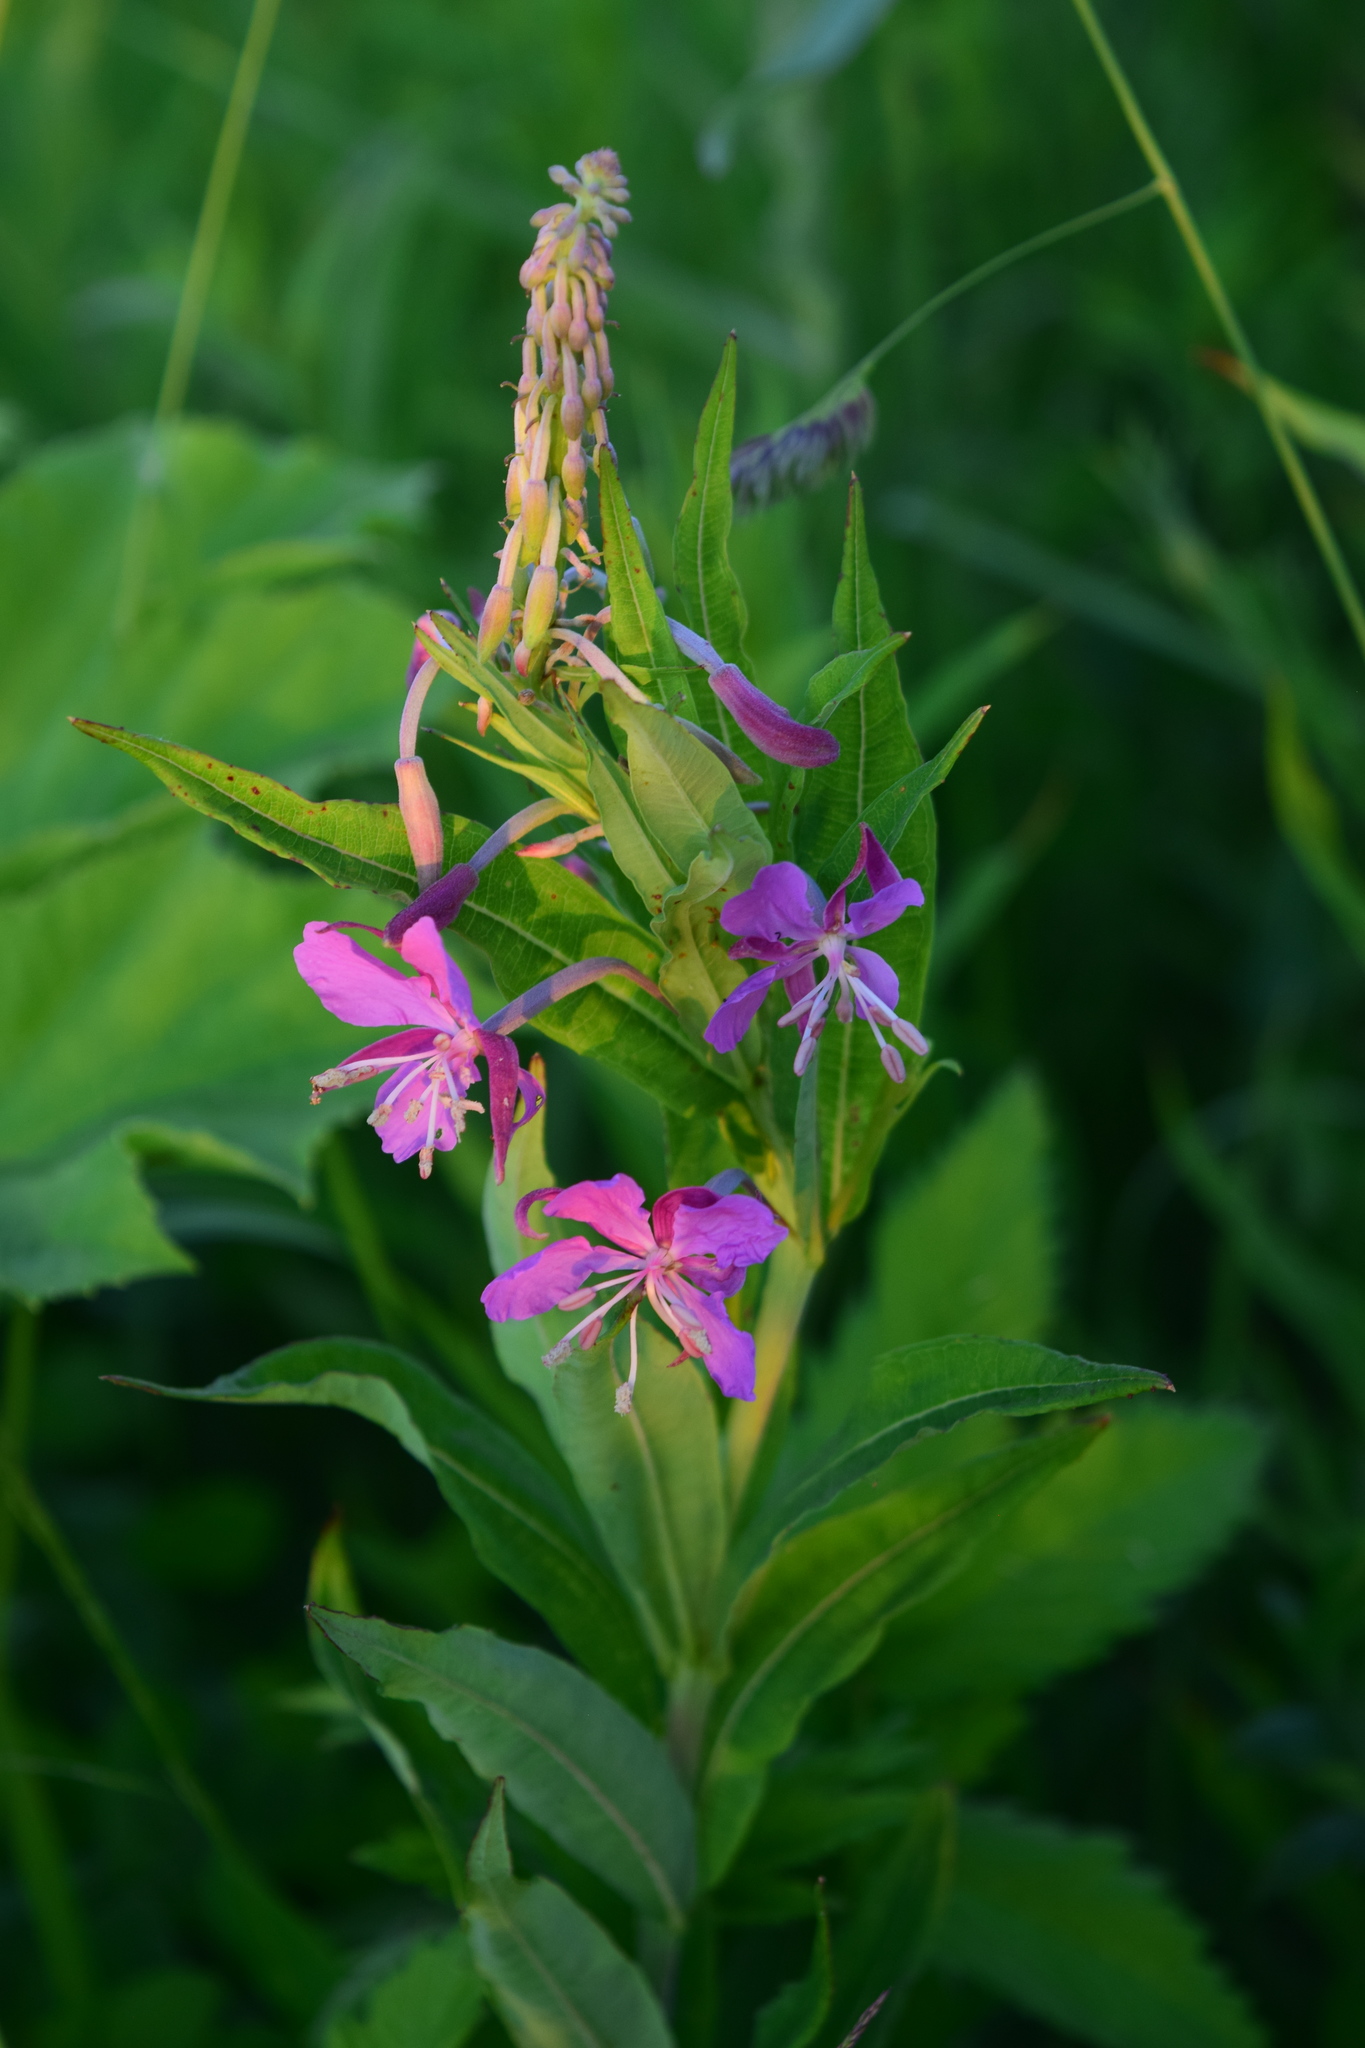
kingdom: Plantae
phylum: Tracheophyta
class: Magnoliopsida
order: Myrtales
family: Onagraceae
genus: Chamaenerion
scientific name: Chamaenerion angustifolium
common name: Fireweed
